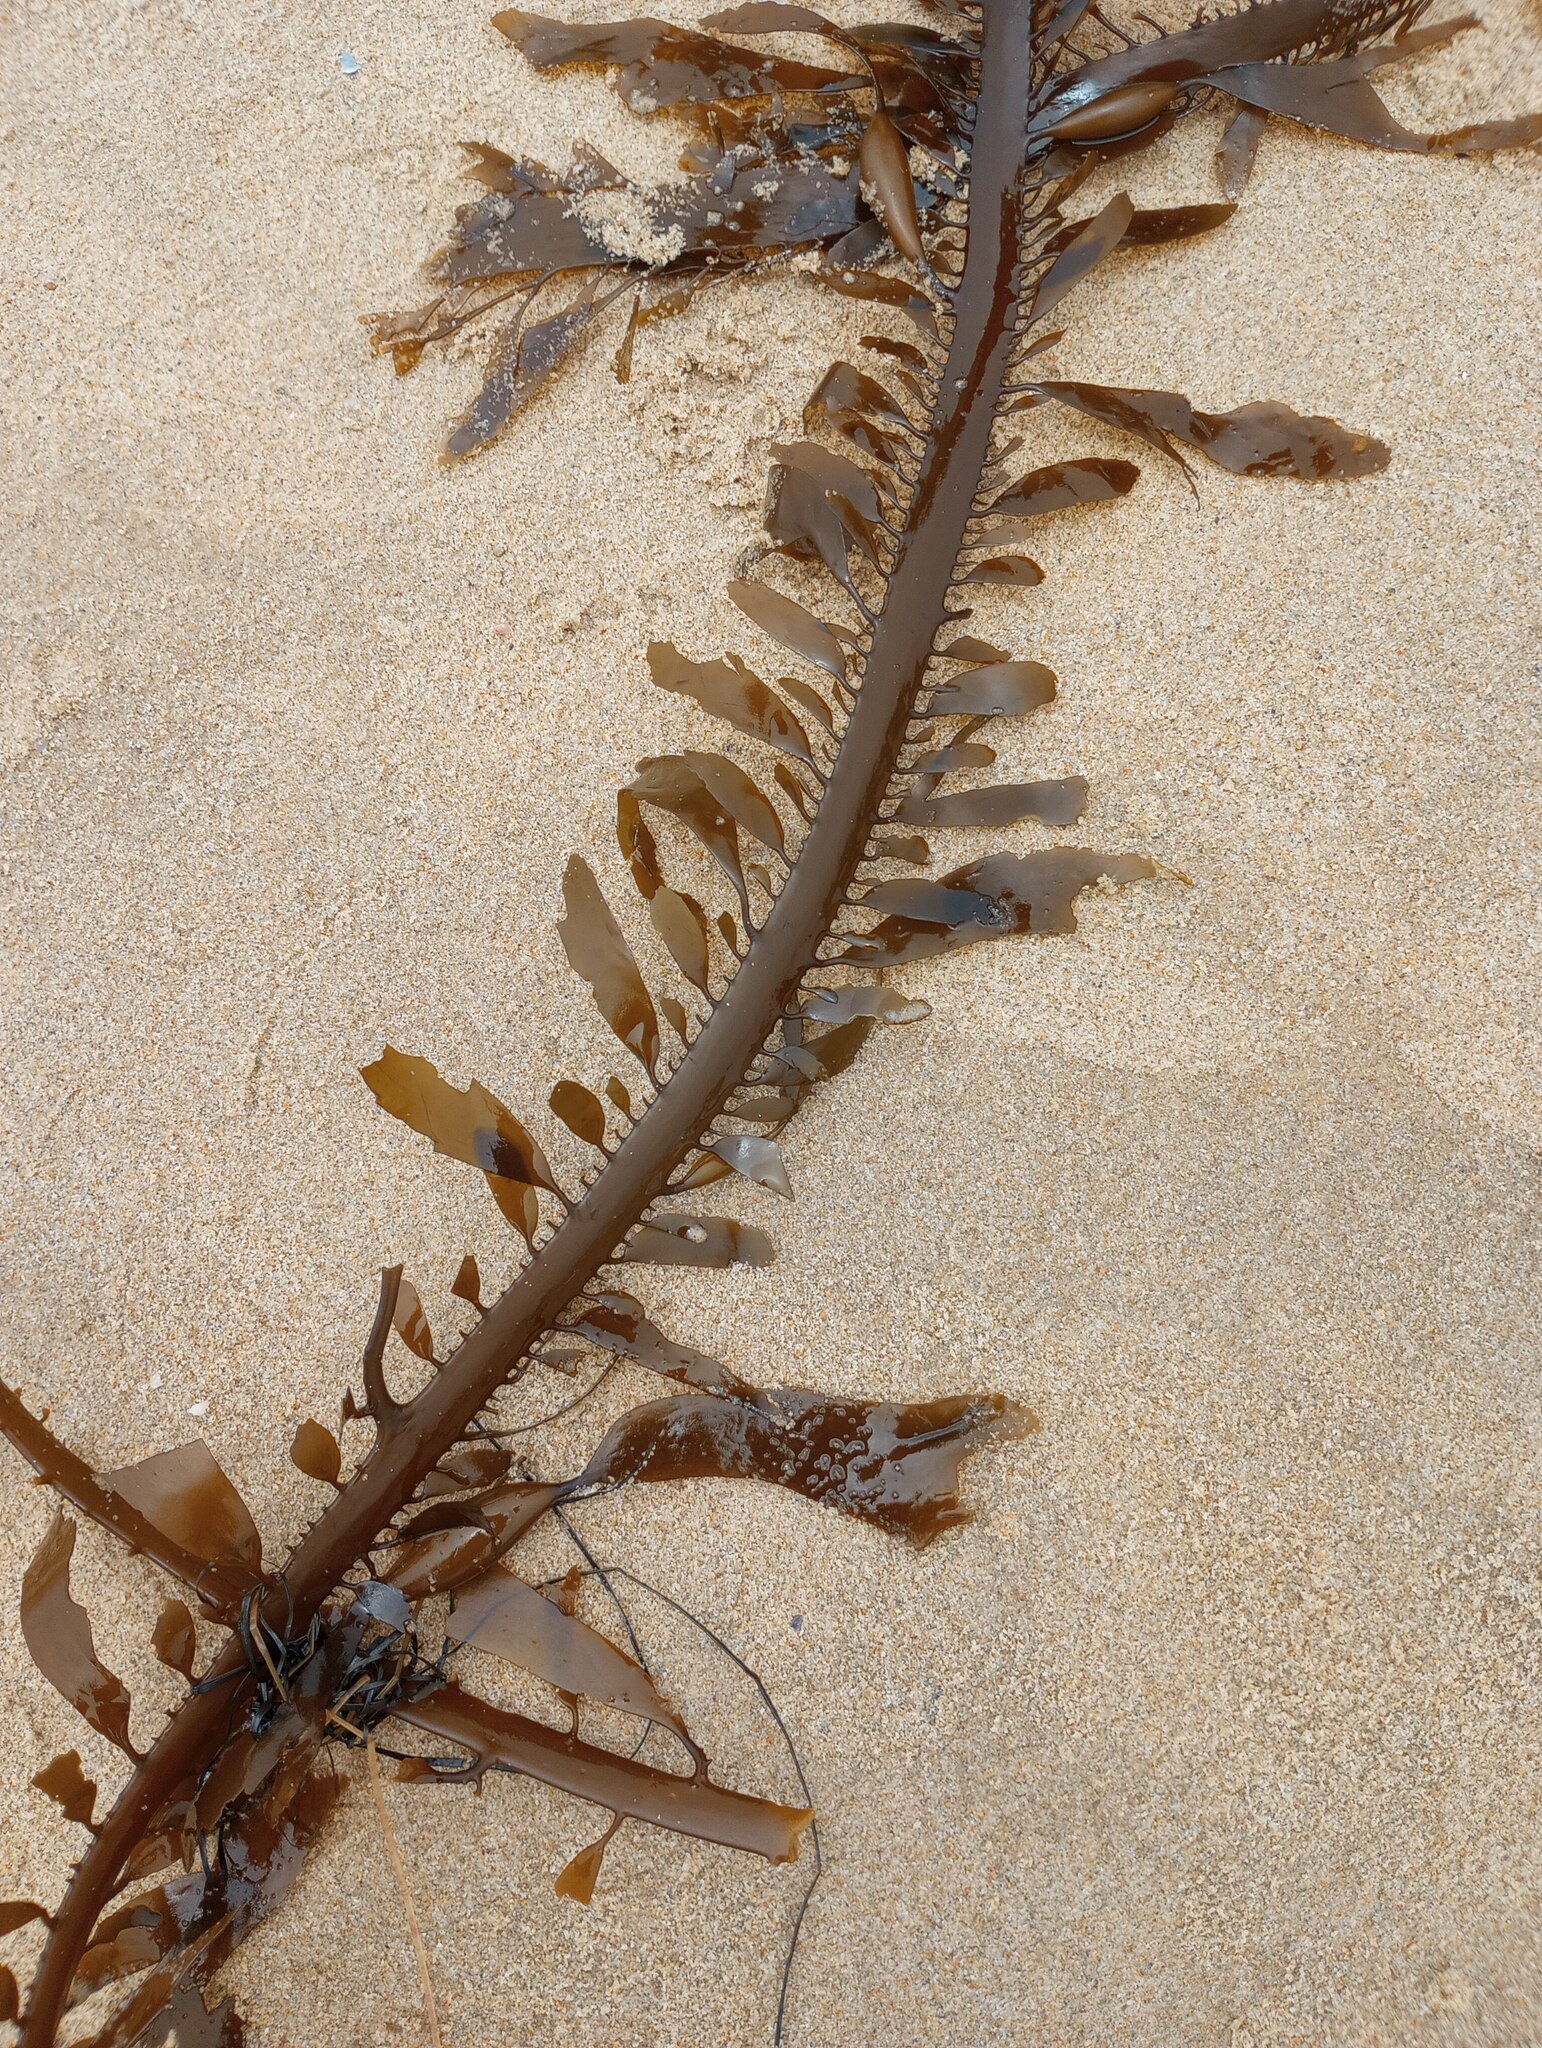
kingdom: Chromista
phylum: Ochrophyta
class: Phaeophyceae
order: Laminariales
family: Lessoniaceae
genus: Egregia
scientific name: Egregia menziesii
